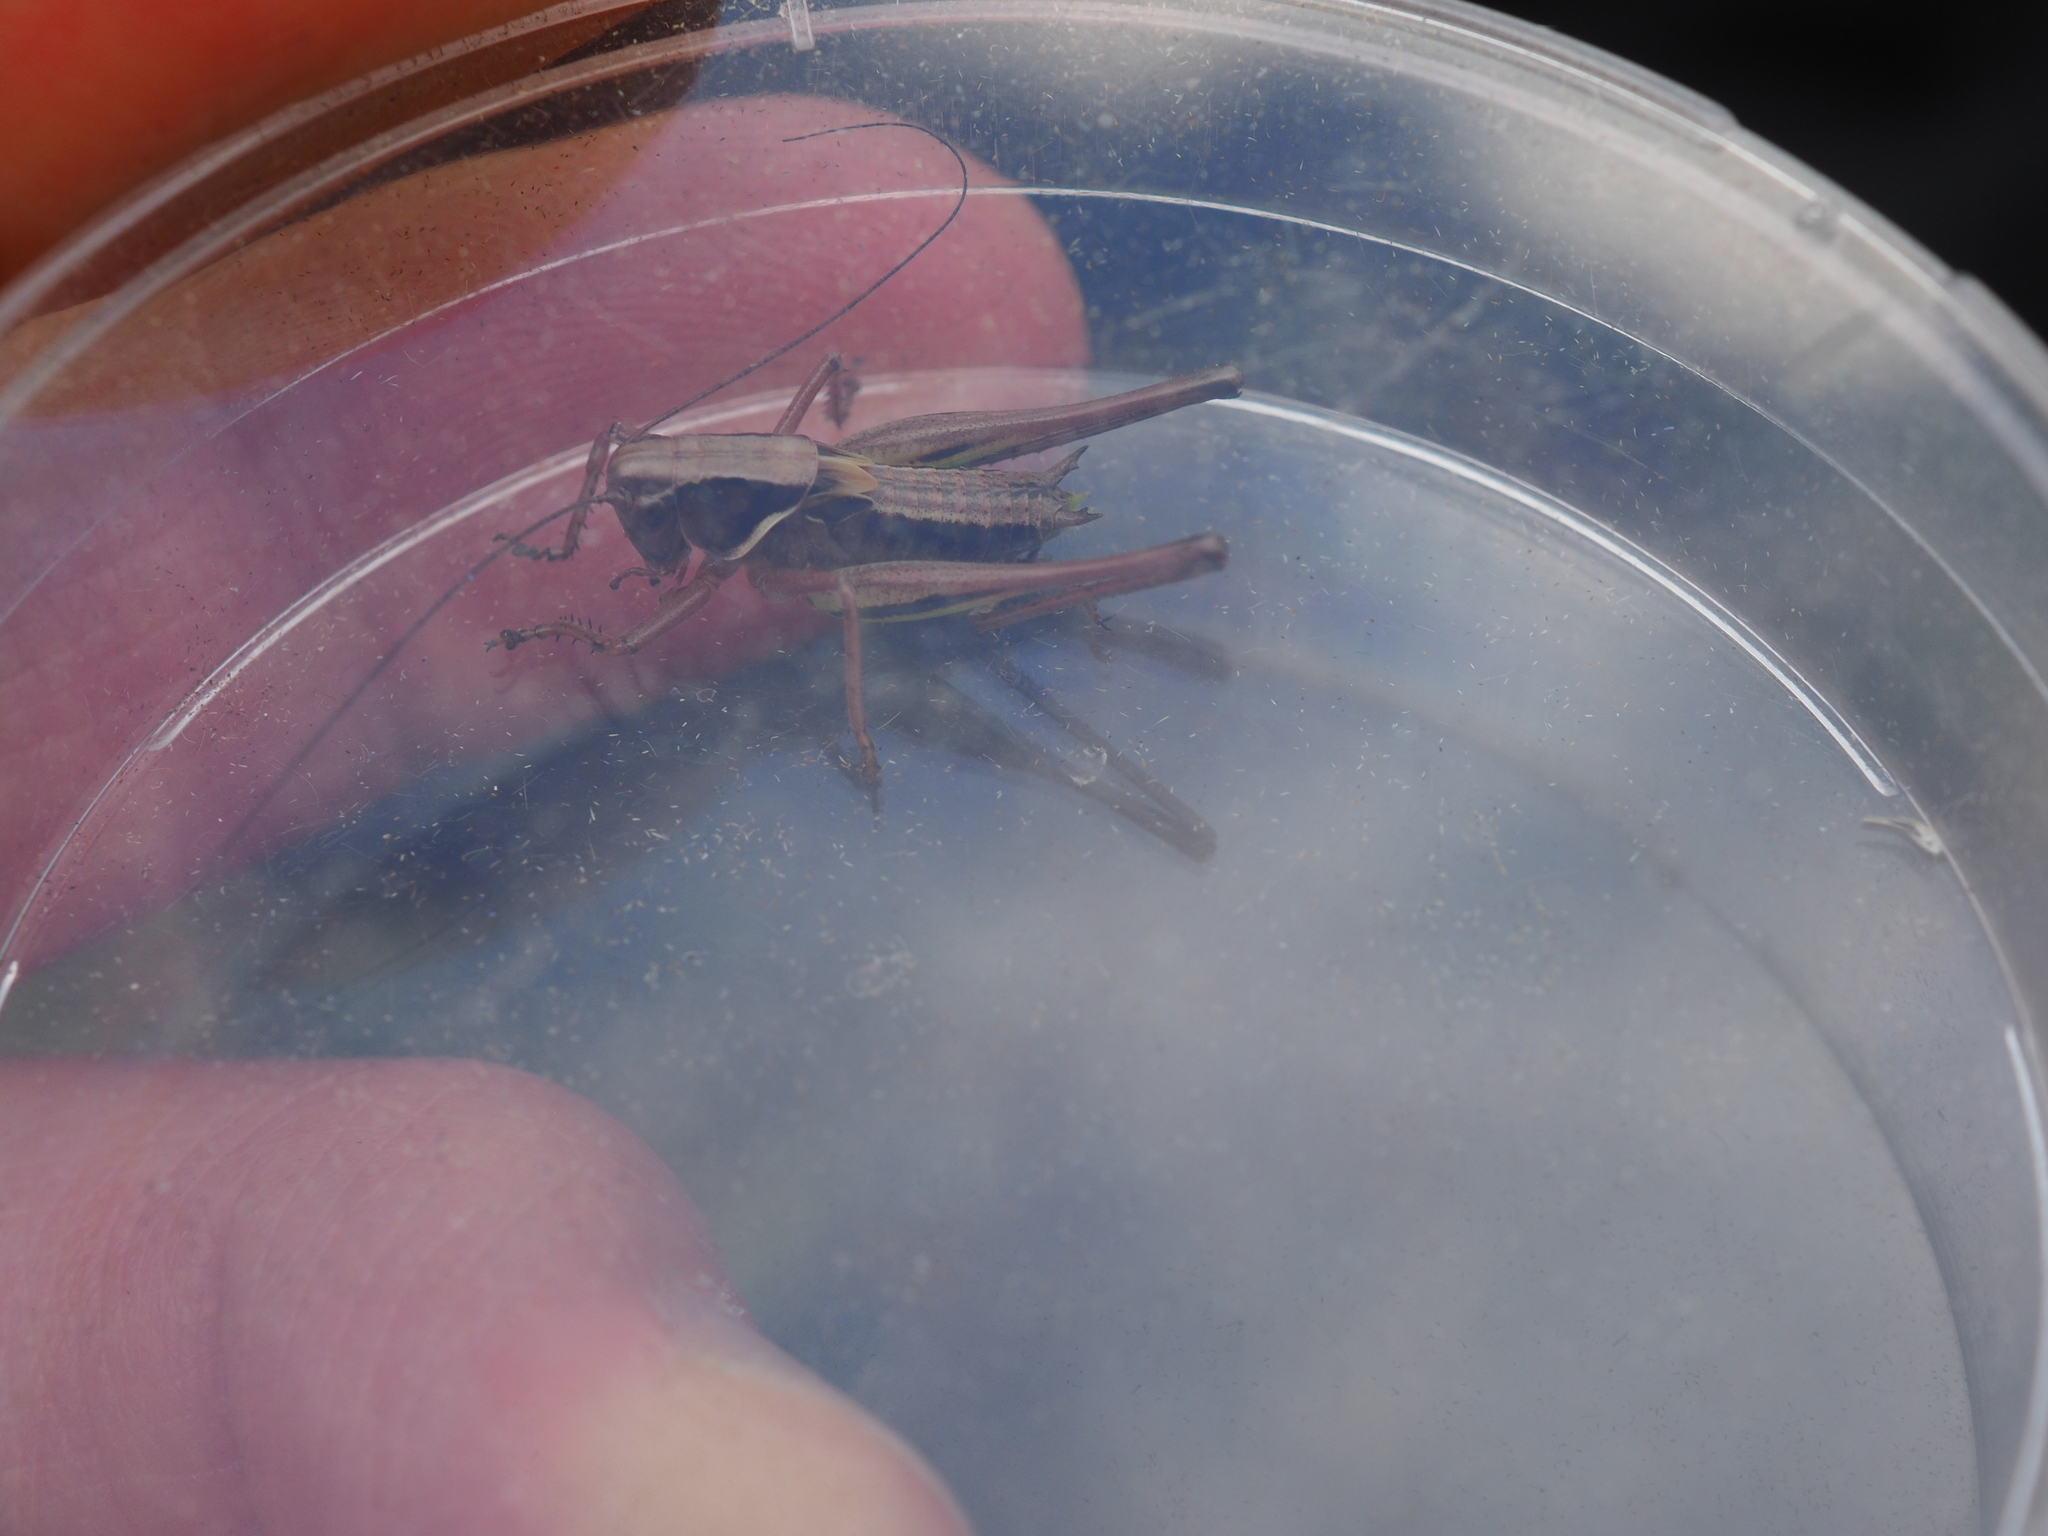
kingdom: Animalia
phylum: Arthropoda
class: Insecta
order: Orthoptera
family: Tettigoniidae
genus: Metrioptera
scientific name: Metrioptera brachyptera
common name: Bog bush-cricket
